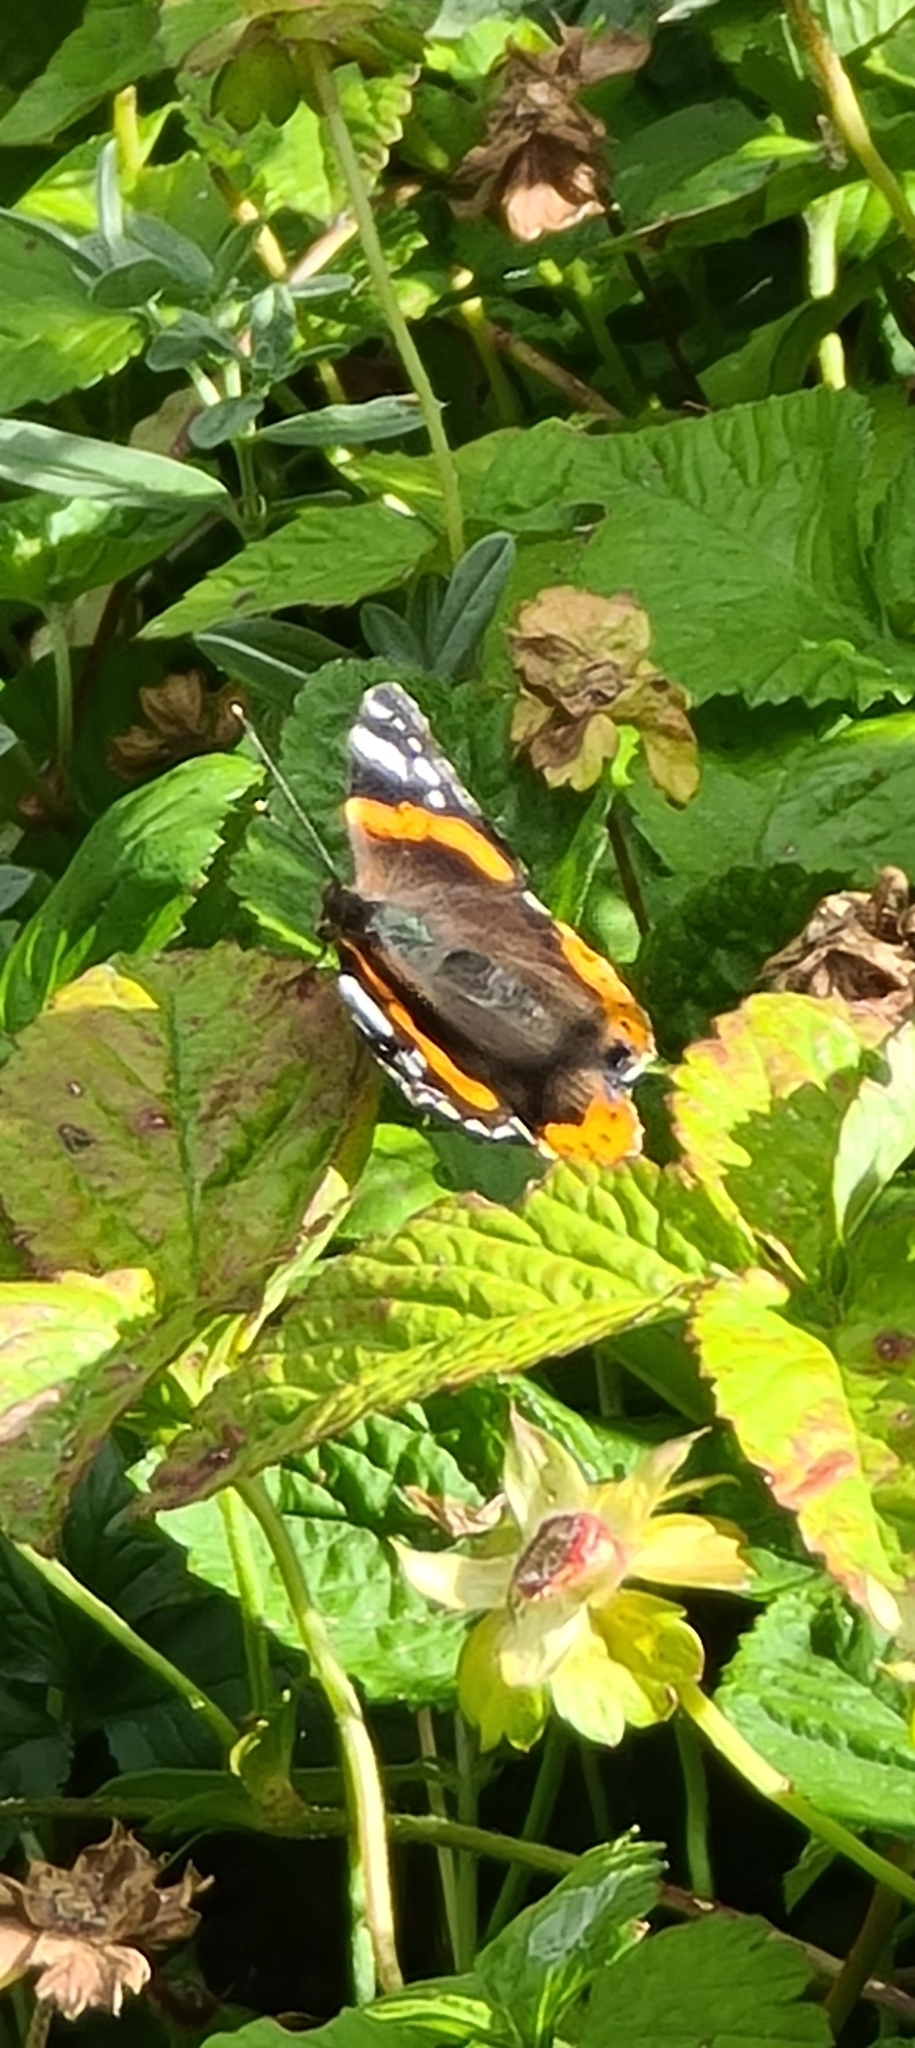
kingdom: Animalia
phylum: Arthropoda
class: Insecta
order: Lepidoptera
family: Nymphalidae
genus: Vanessa
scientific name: Vanessa atalanta
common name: Red admiral
